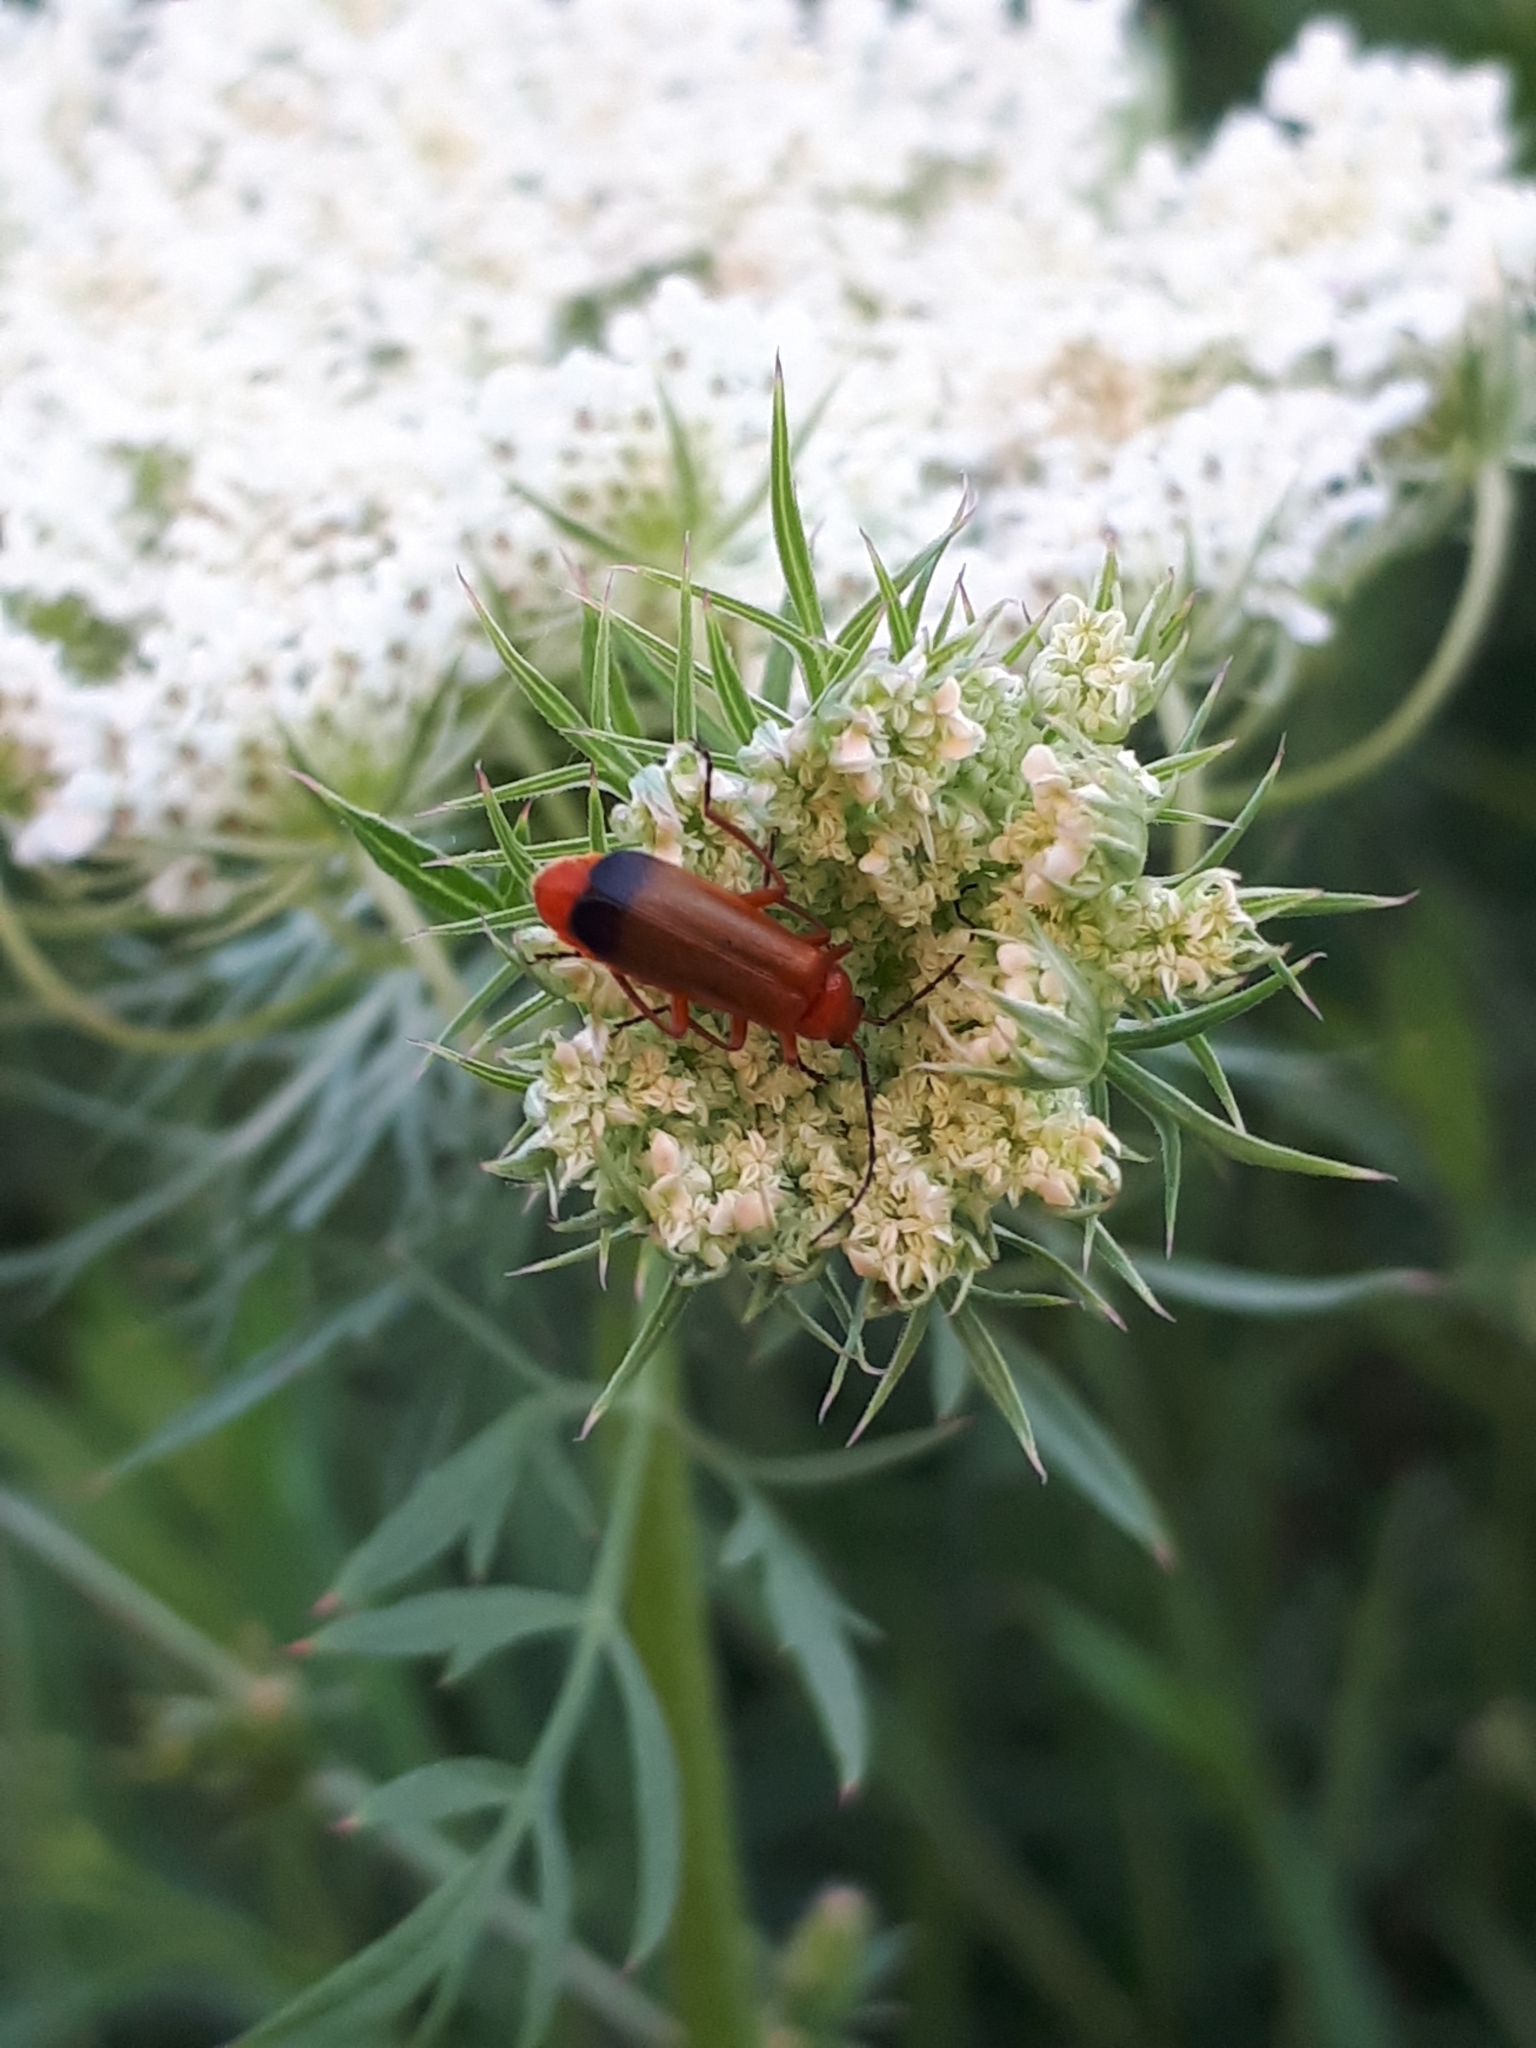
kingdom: Animalia
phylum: Arthropoda
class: Insecta
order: Coleoptera
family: Cantharidae
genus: Rhagonycha
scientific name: Rhagonycha fulva
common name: Common red soldier beetle
